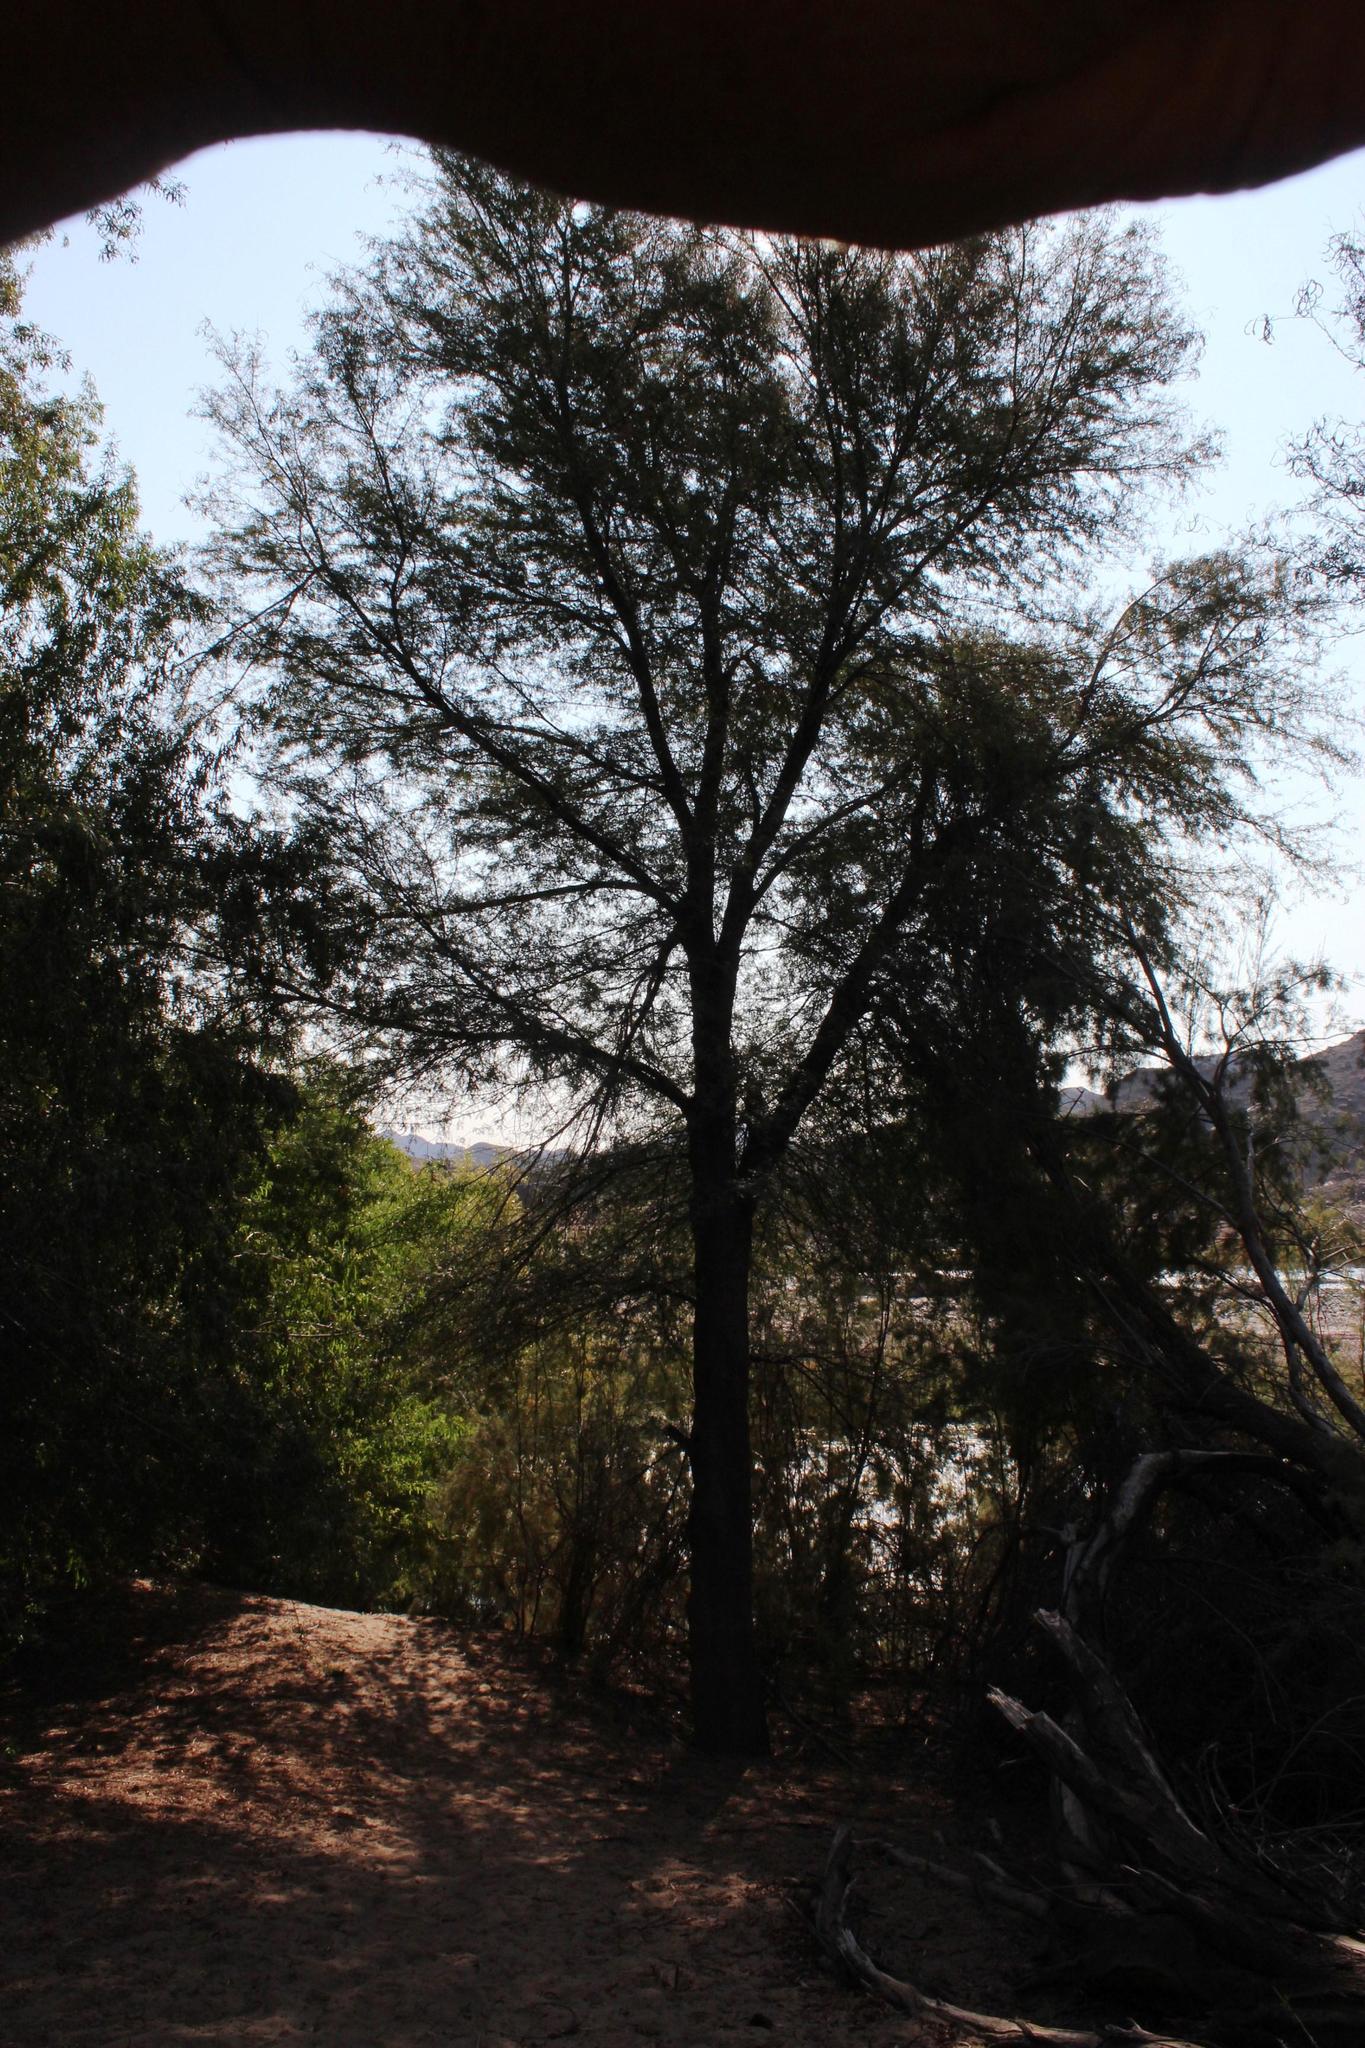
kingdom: Plantae
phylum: Tracheophyta
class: Magnoliopsida
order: Fabales
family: Fabaceae
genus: Vachellia
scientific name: Vachellia karroo
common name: Sweet thorn
